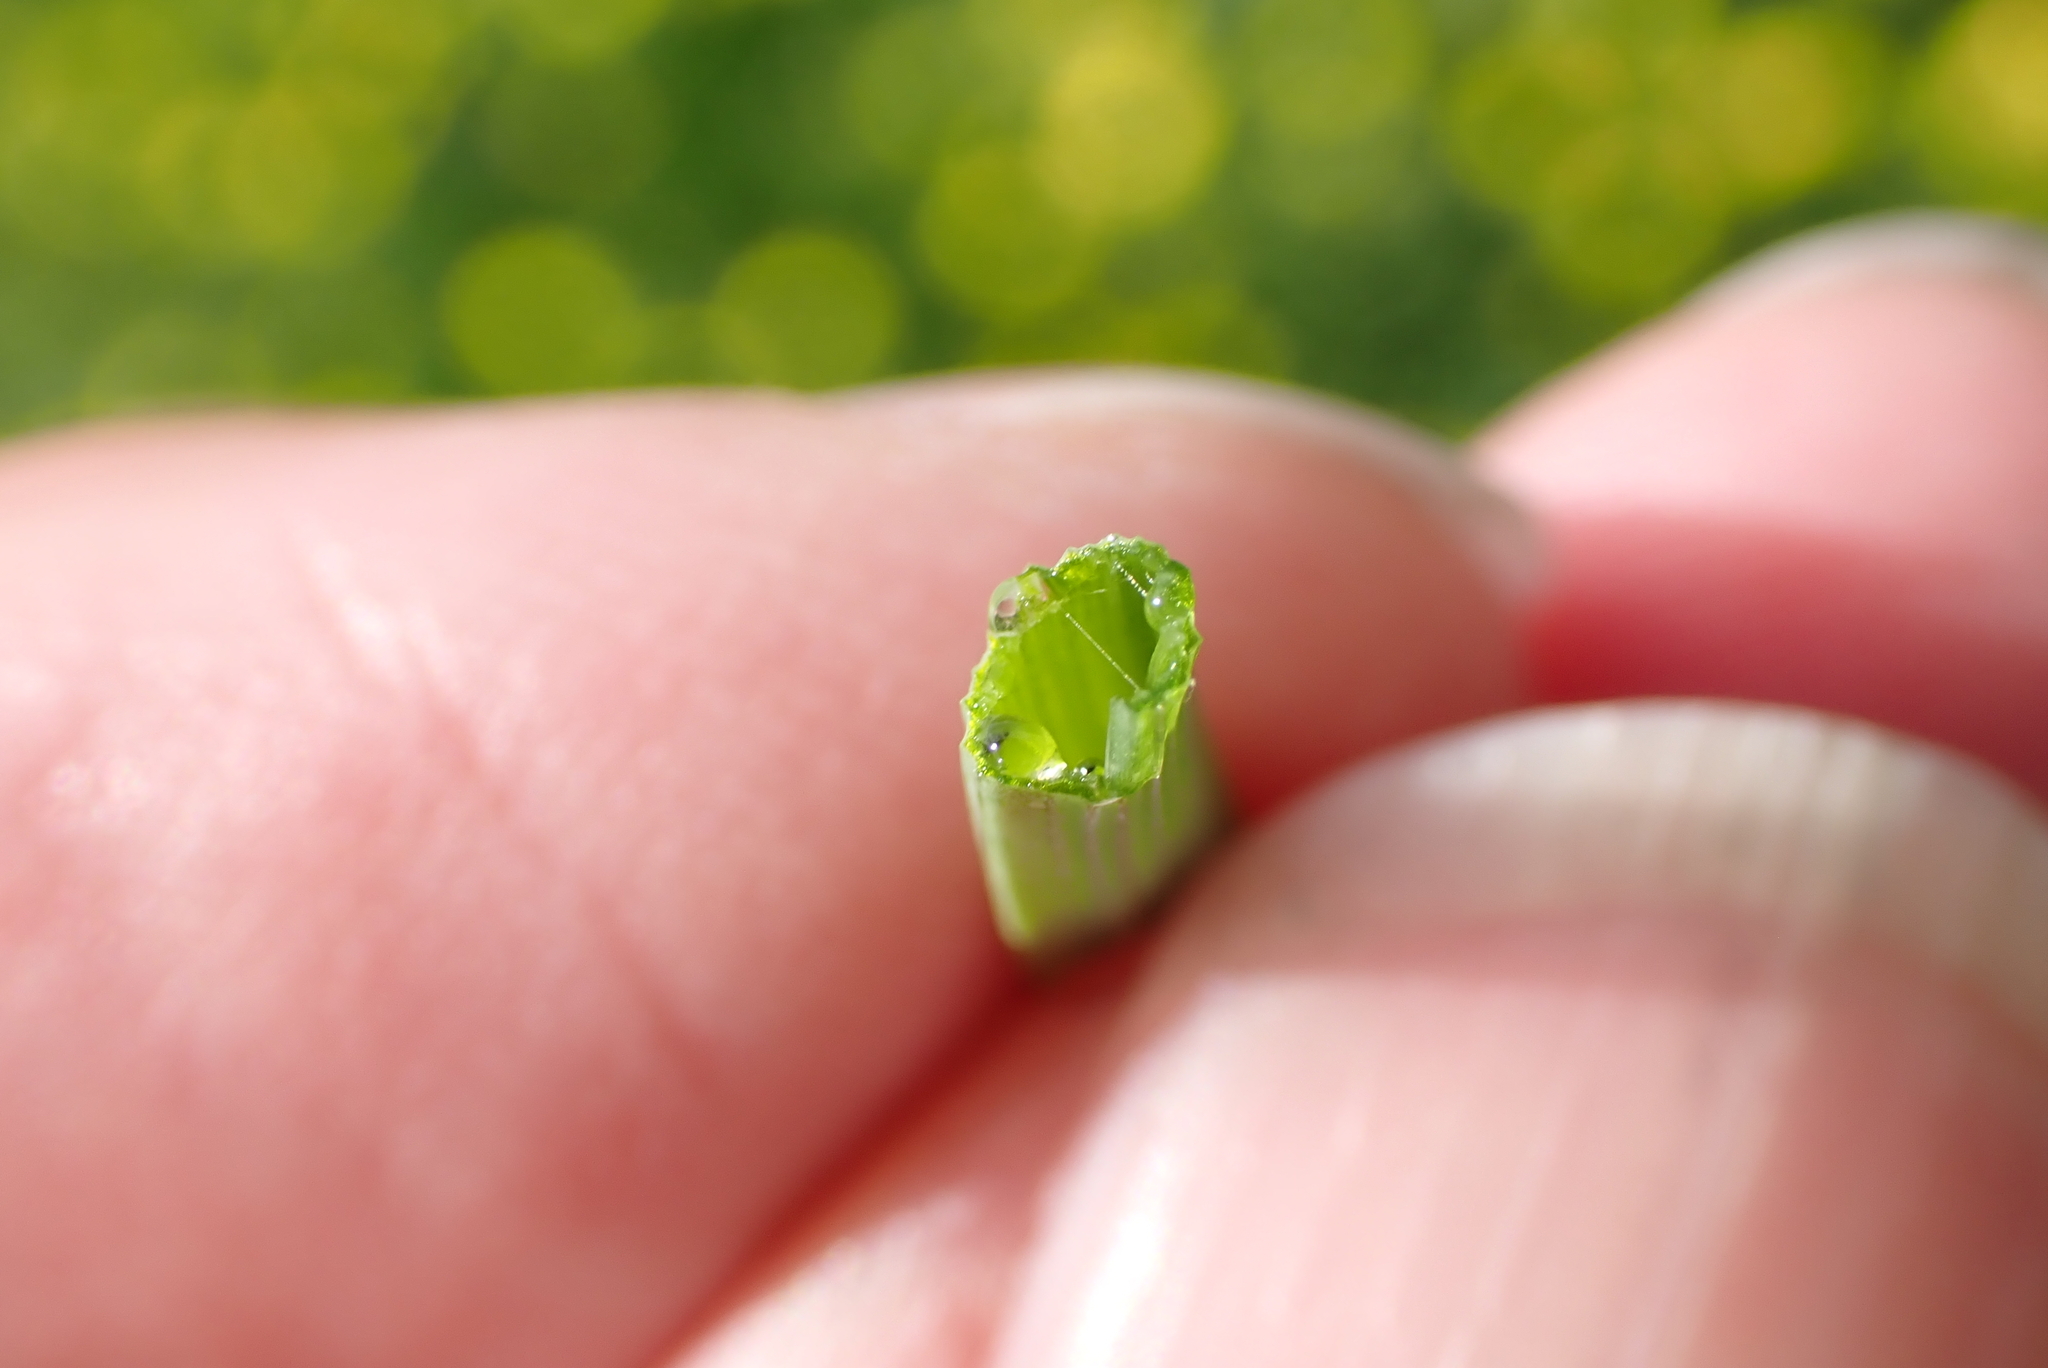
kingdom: Plantae
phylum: Tracheophyta
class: Liliopsida
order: Asparagales
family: Amaryllidaceae
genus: Allium
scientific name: Allium vineale
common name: Crow garlic
